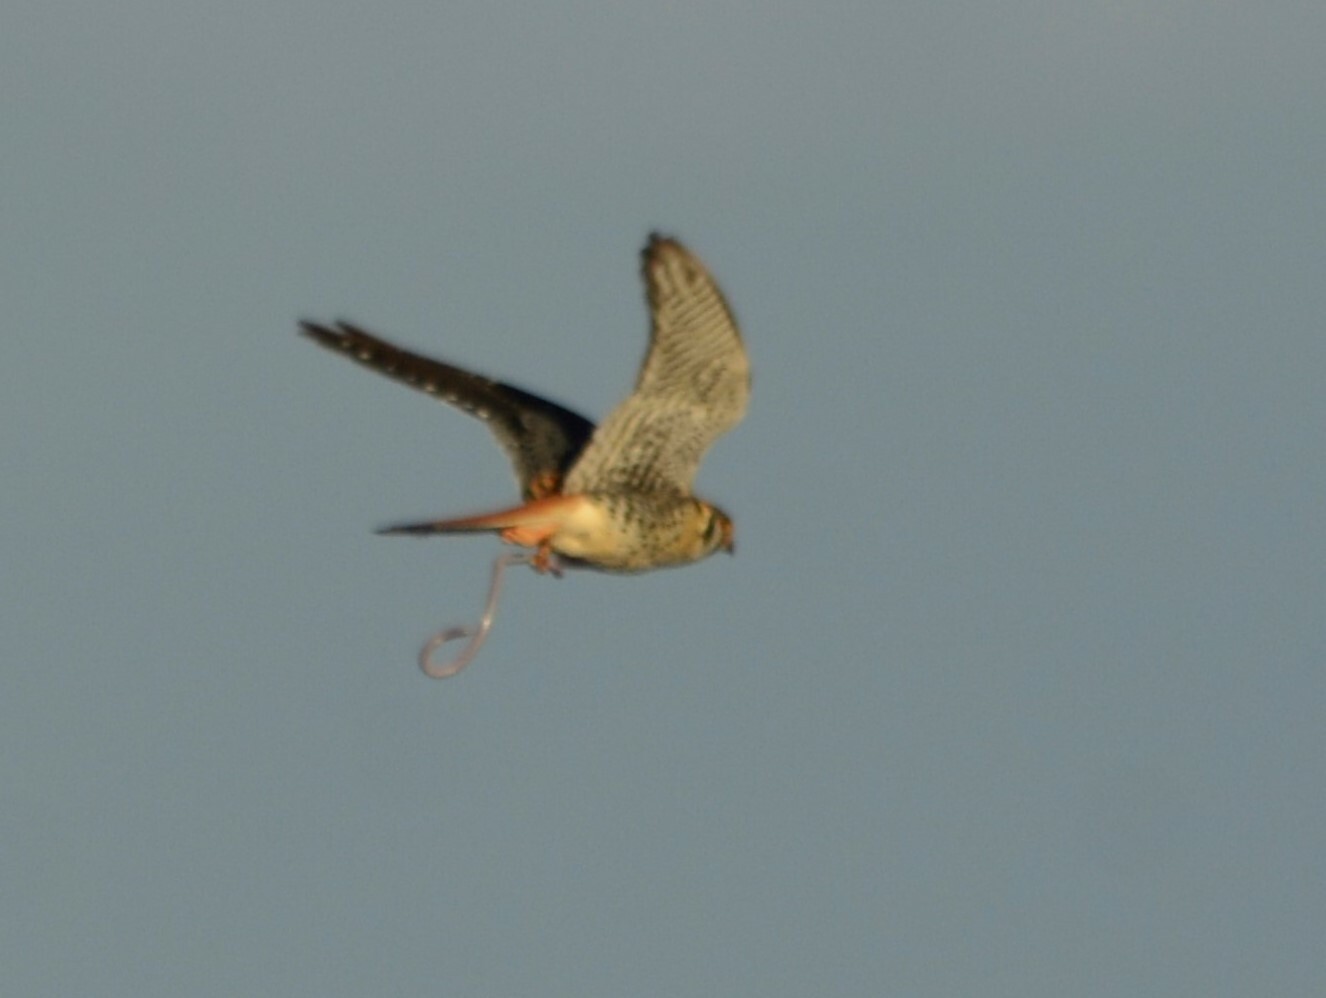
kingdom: Animalia
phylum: Chordata
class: Aves
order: Falconiformes
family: Falconidae
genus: Falco
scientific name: Falco sparverius
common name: American kestrel
